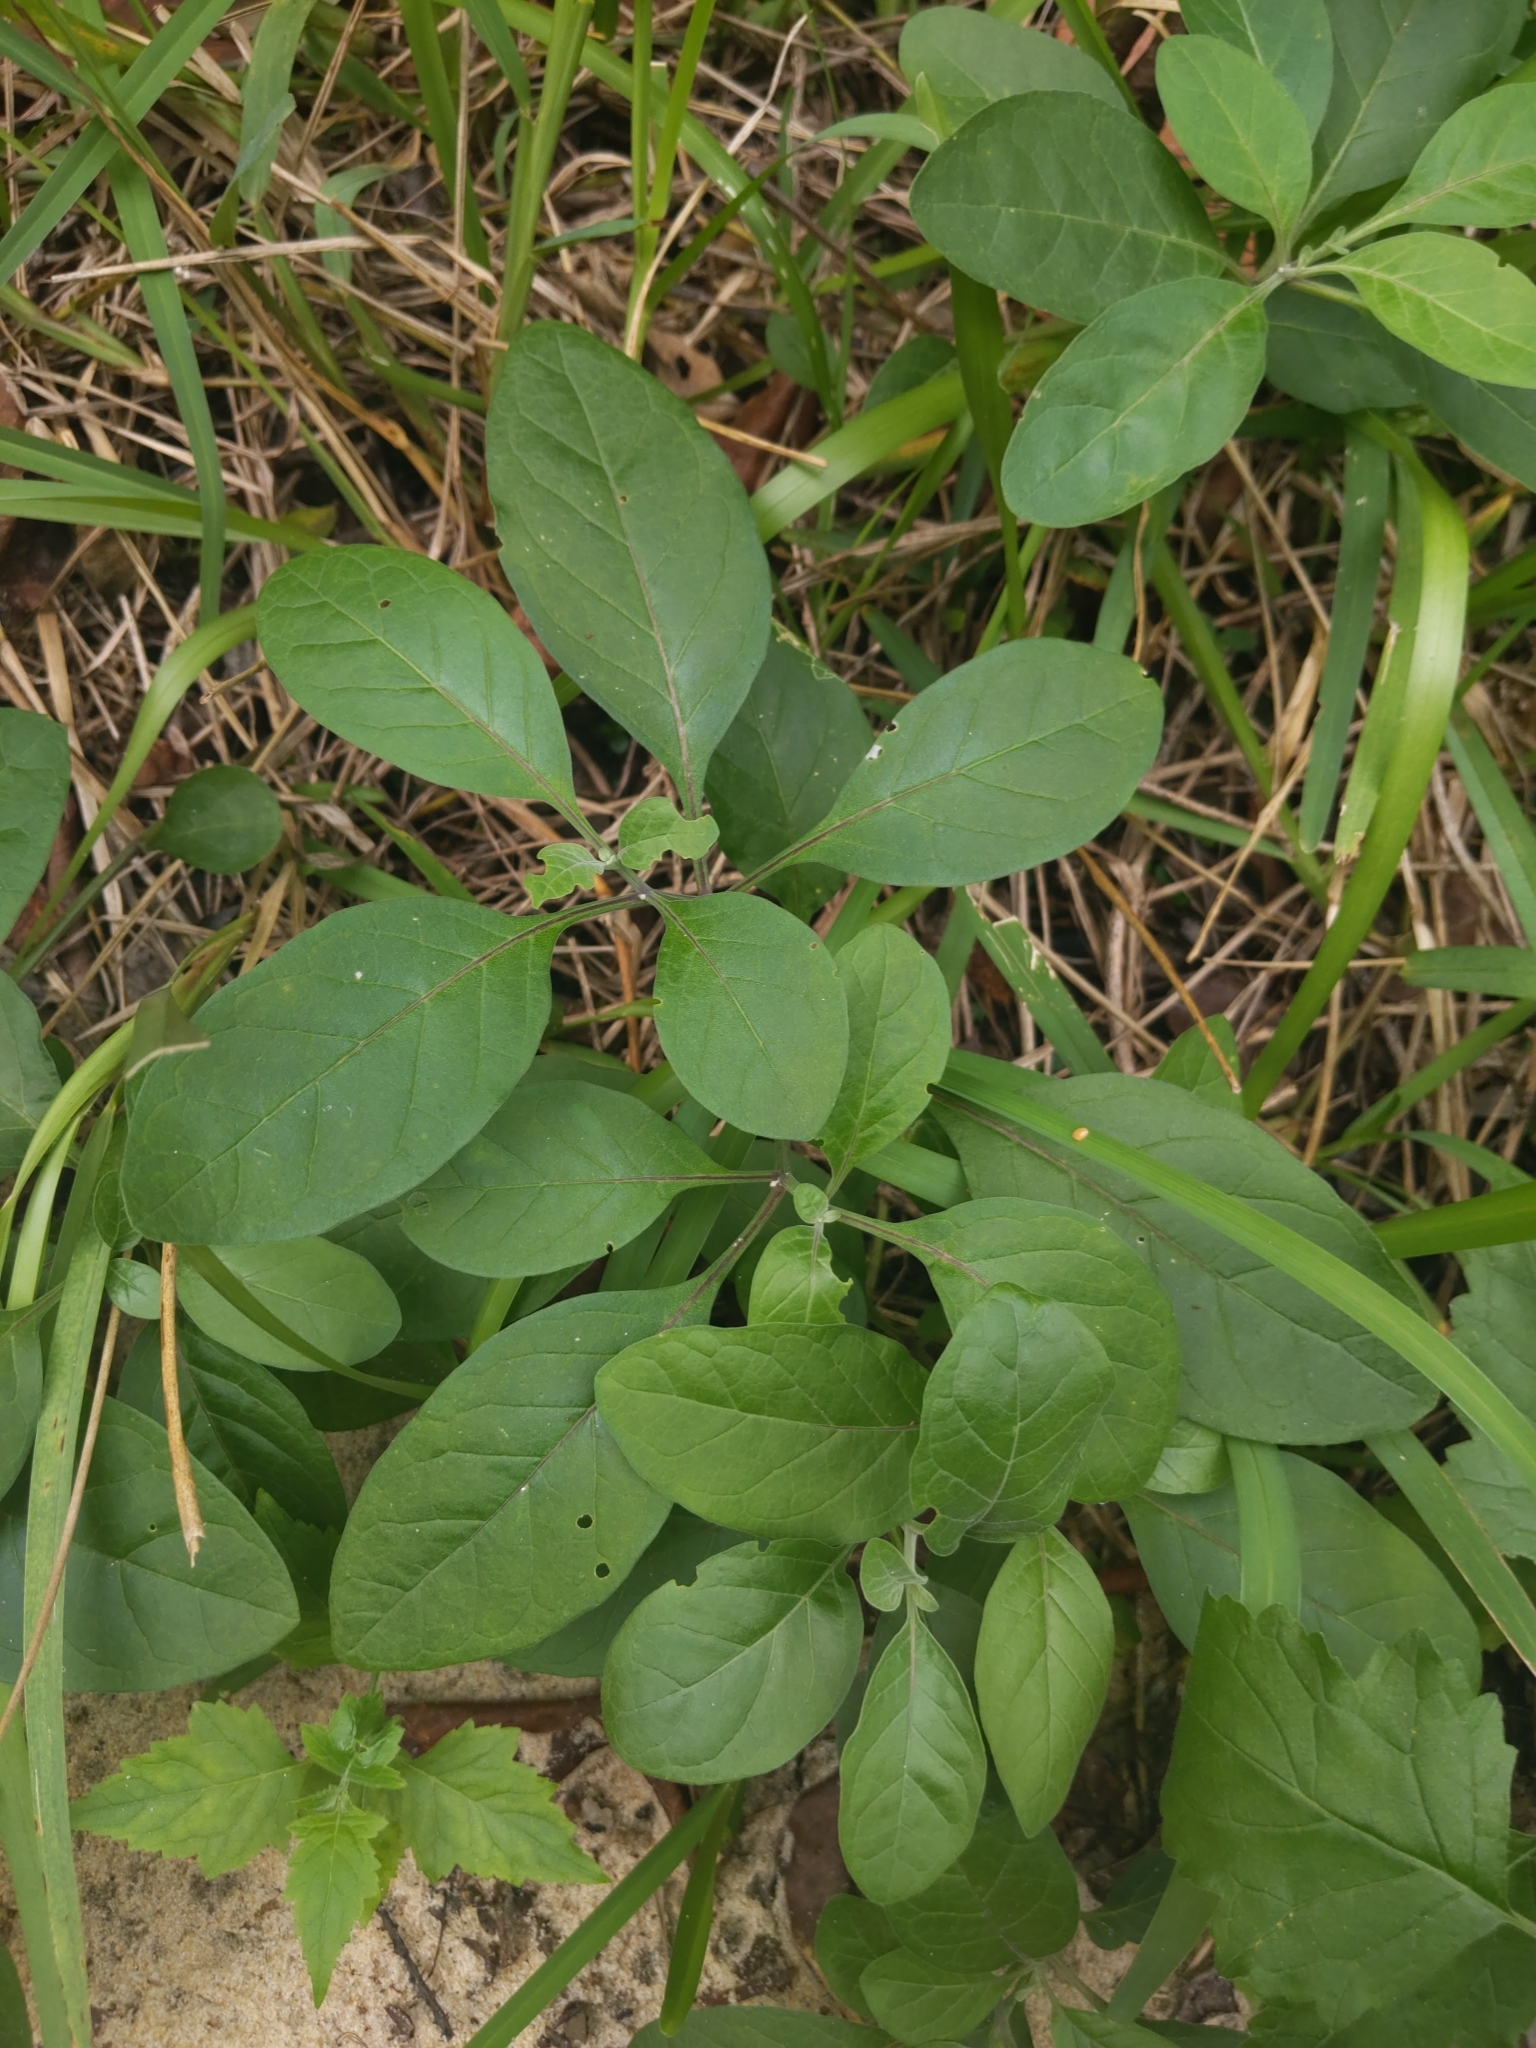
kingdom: Plantae
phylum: Tracheophyta
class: Magnoliopsida
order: Solanales
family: Solanaceae
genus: Physalis
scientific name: Physalis walteri
